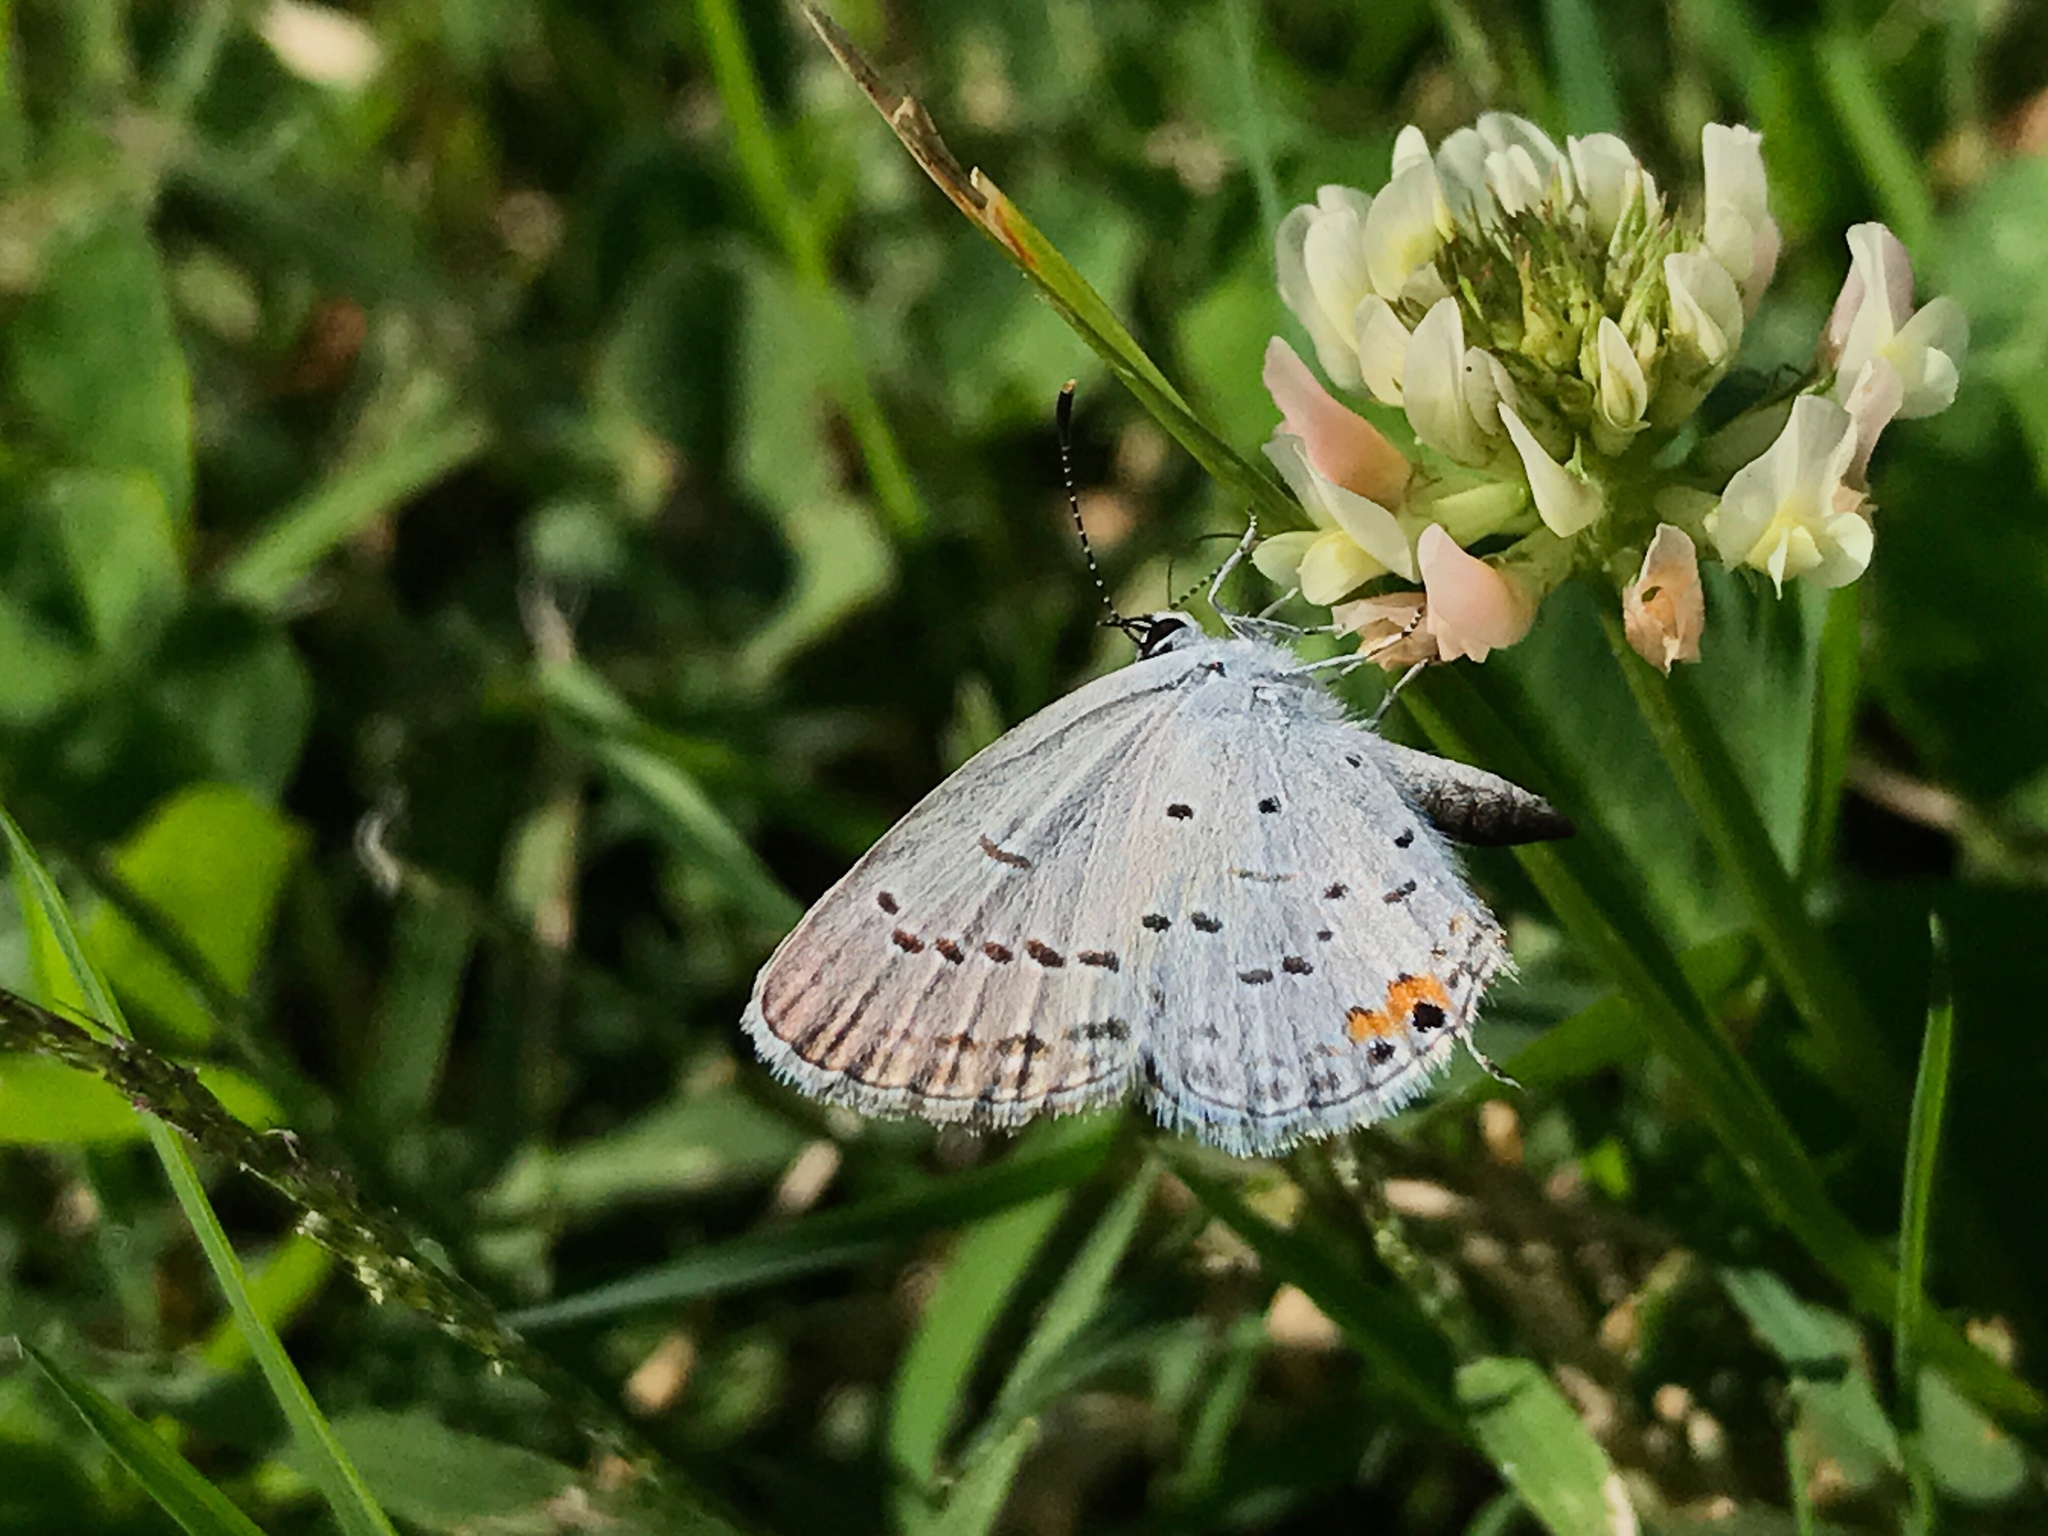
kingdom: Animalia
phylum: Arthropoda
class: Insecta
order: Lepidoptera
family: Lycaenidae
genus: Elkalyce
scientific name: Elkalyce comyntas
